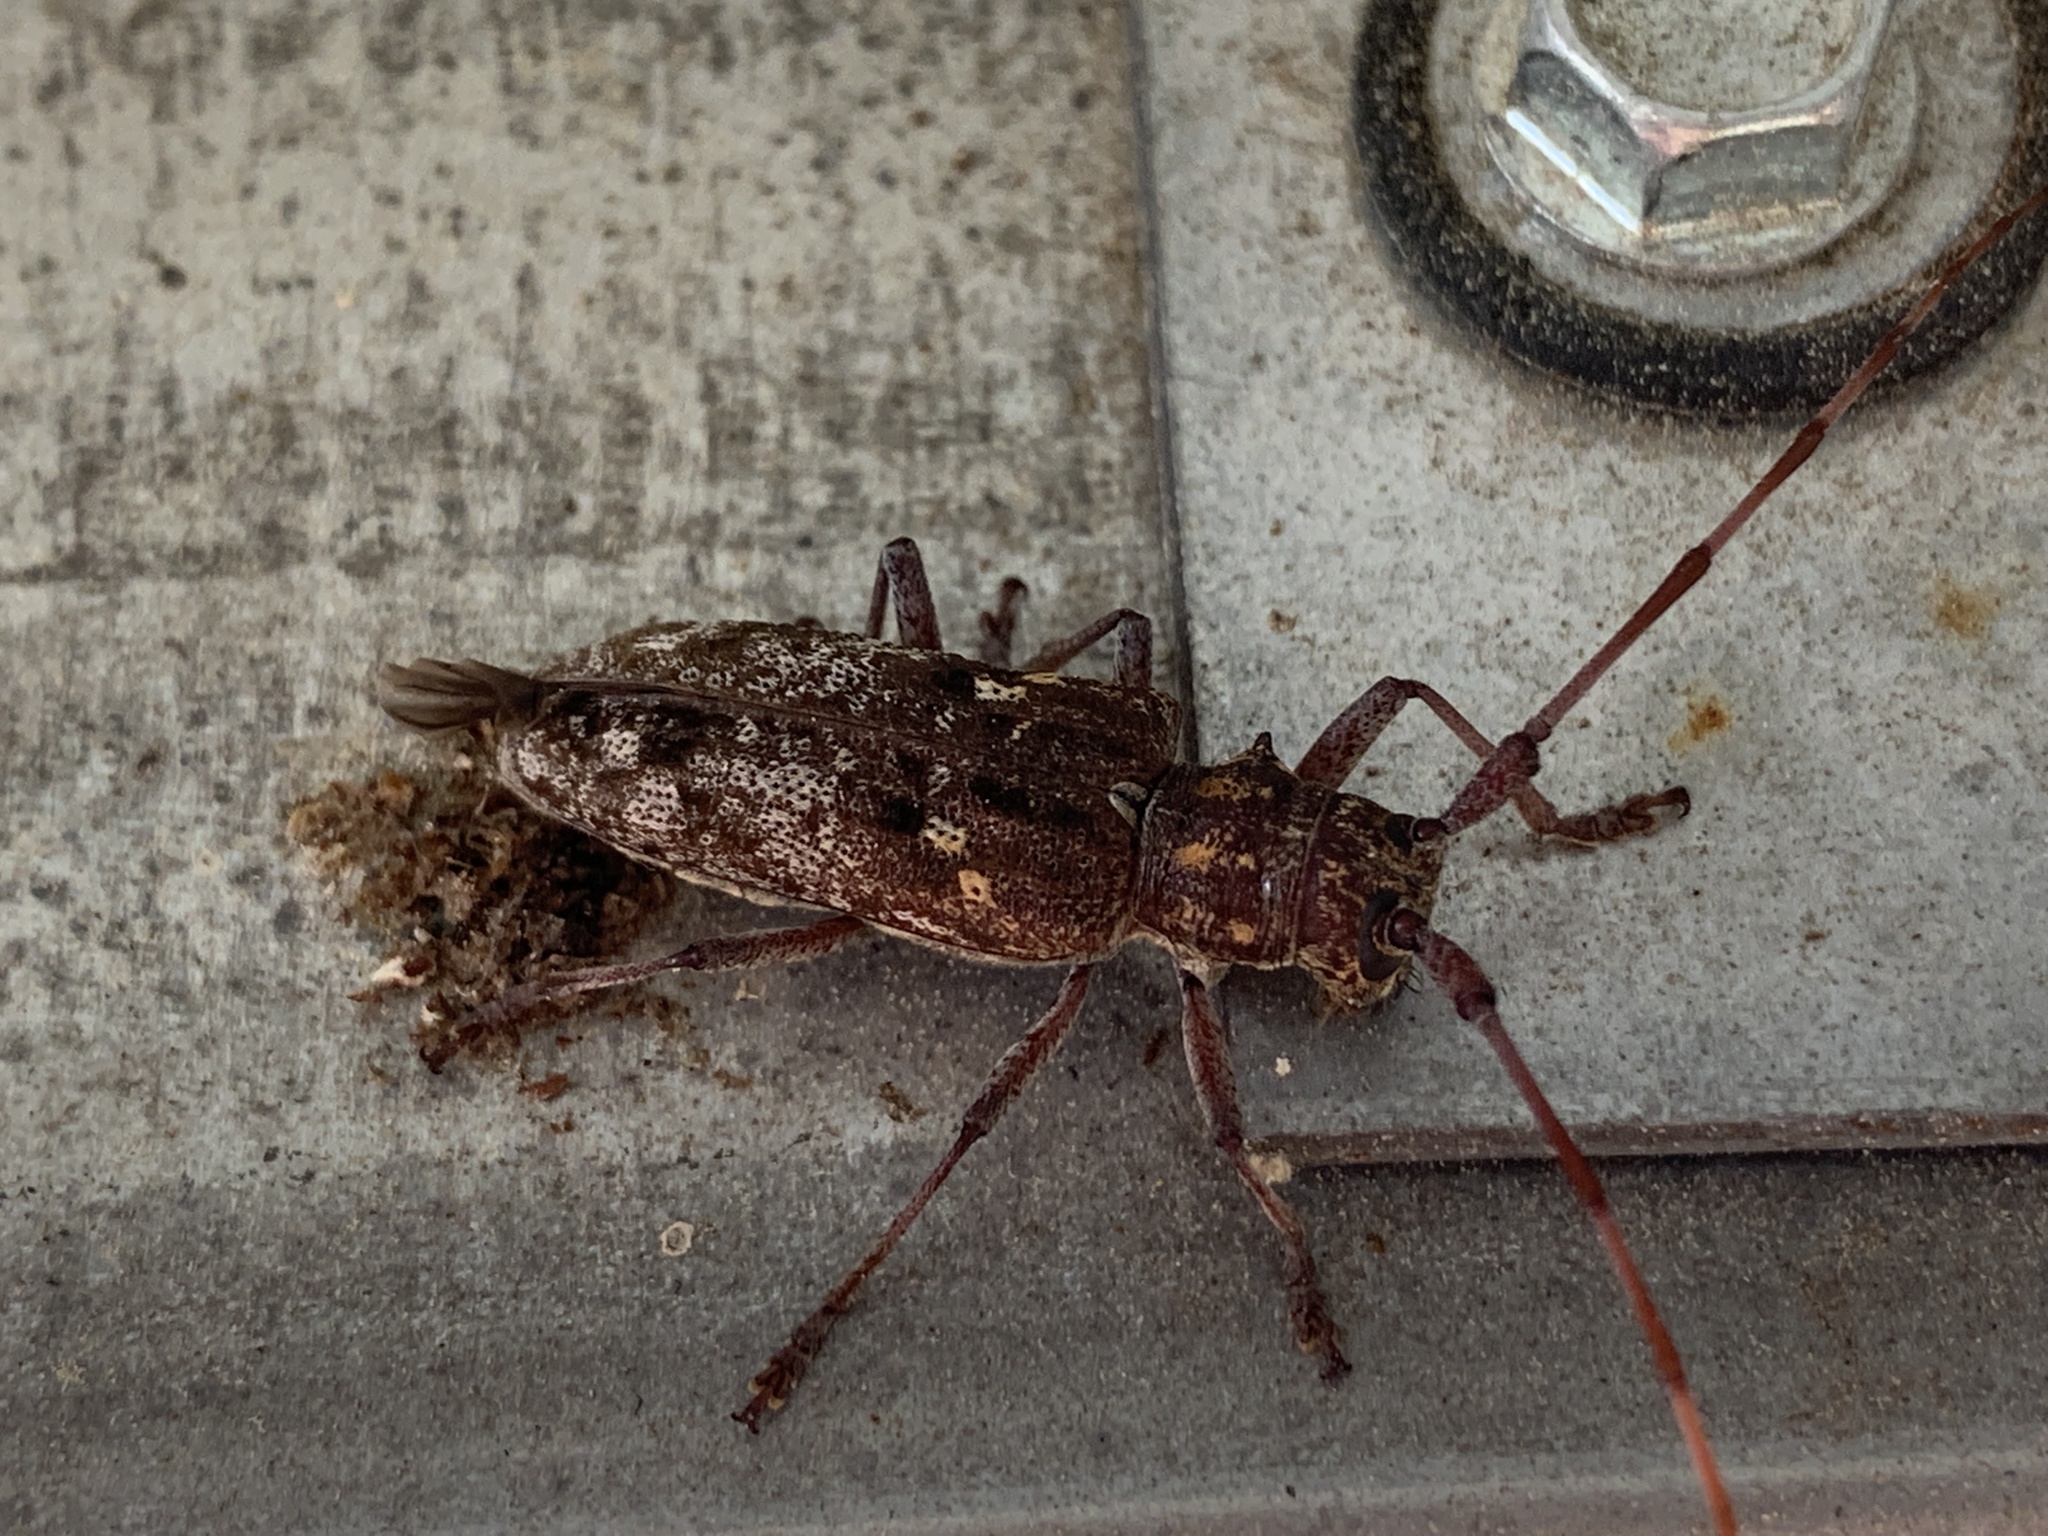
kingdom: Animalia
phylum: Arthropoda
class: Insecta
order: Coleoptera
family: Cerambycidae
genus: Monochamus
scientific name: Monochamus carolinensis
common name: Carolina pine sawyer
